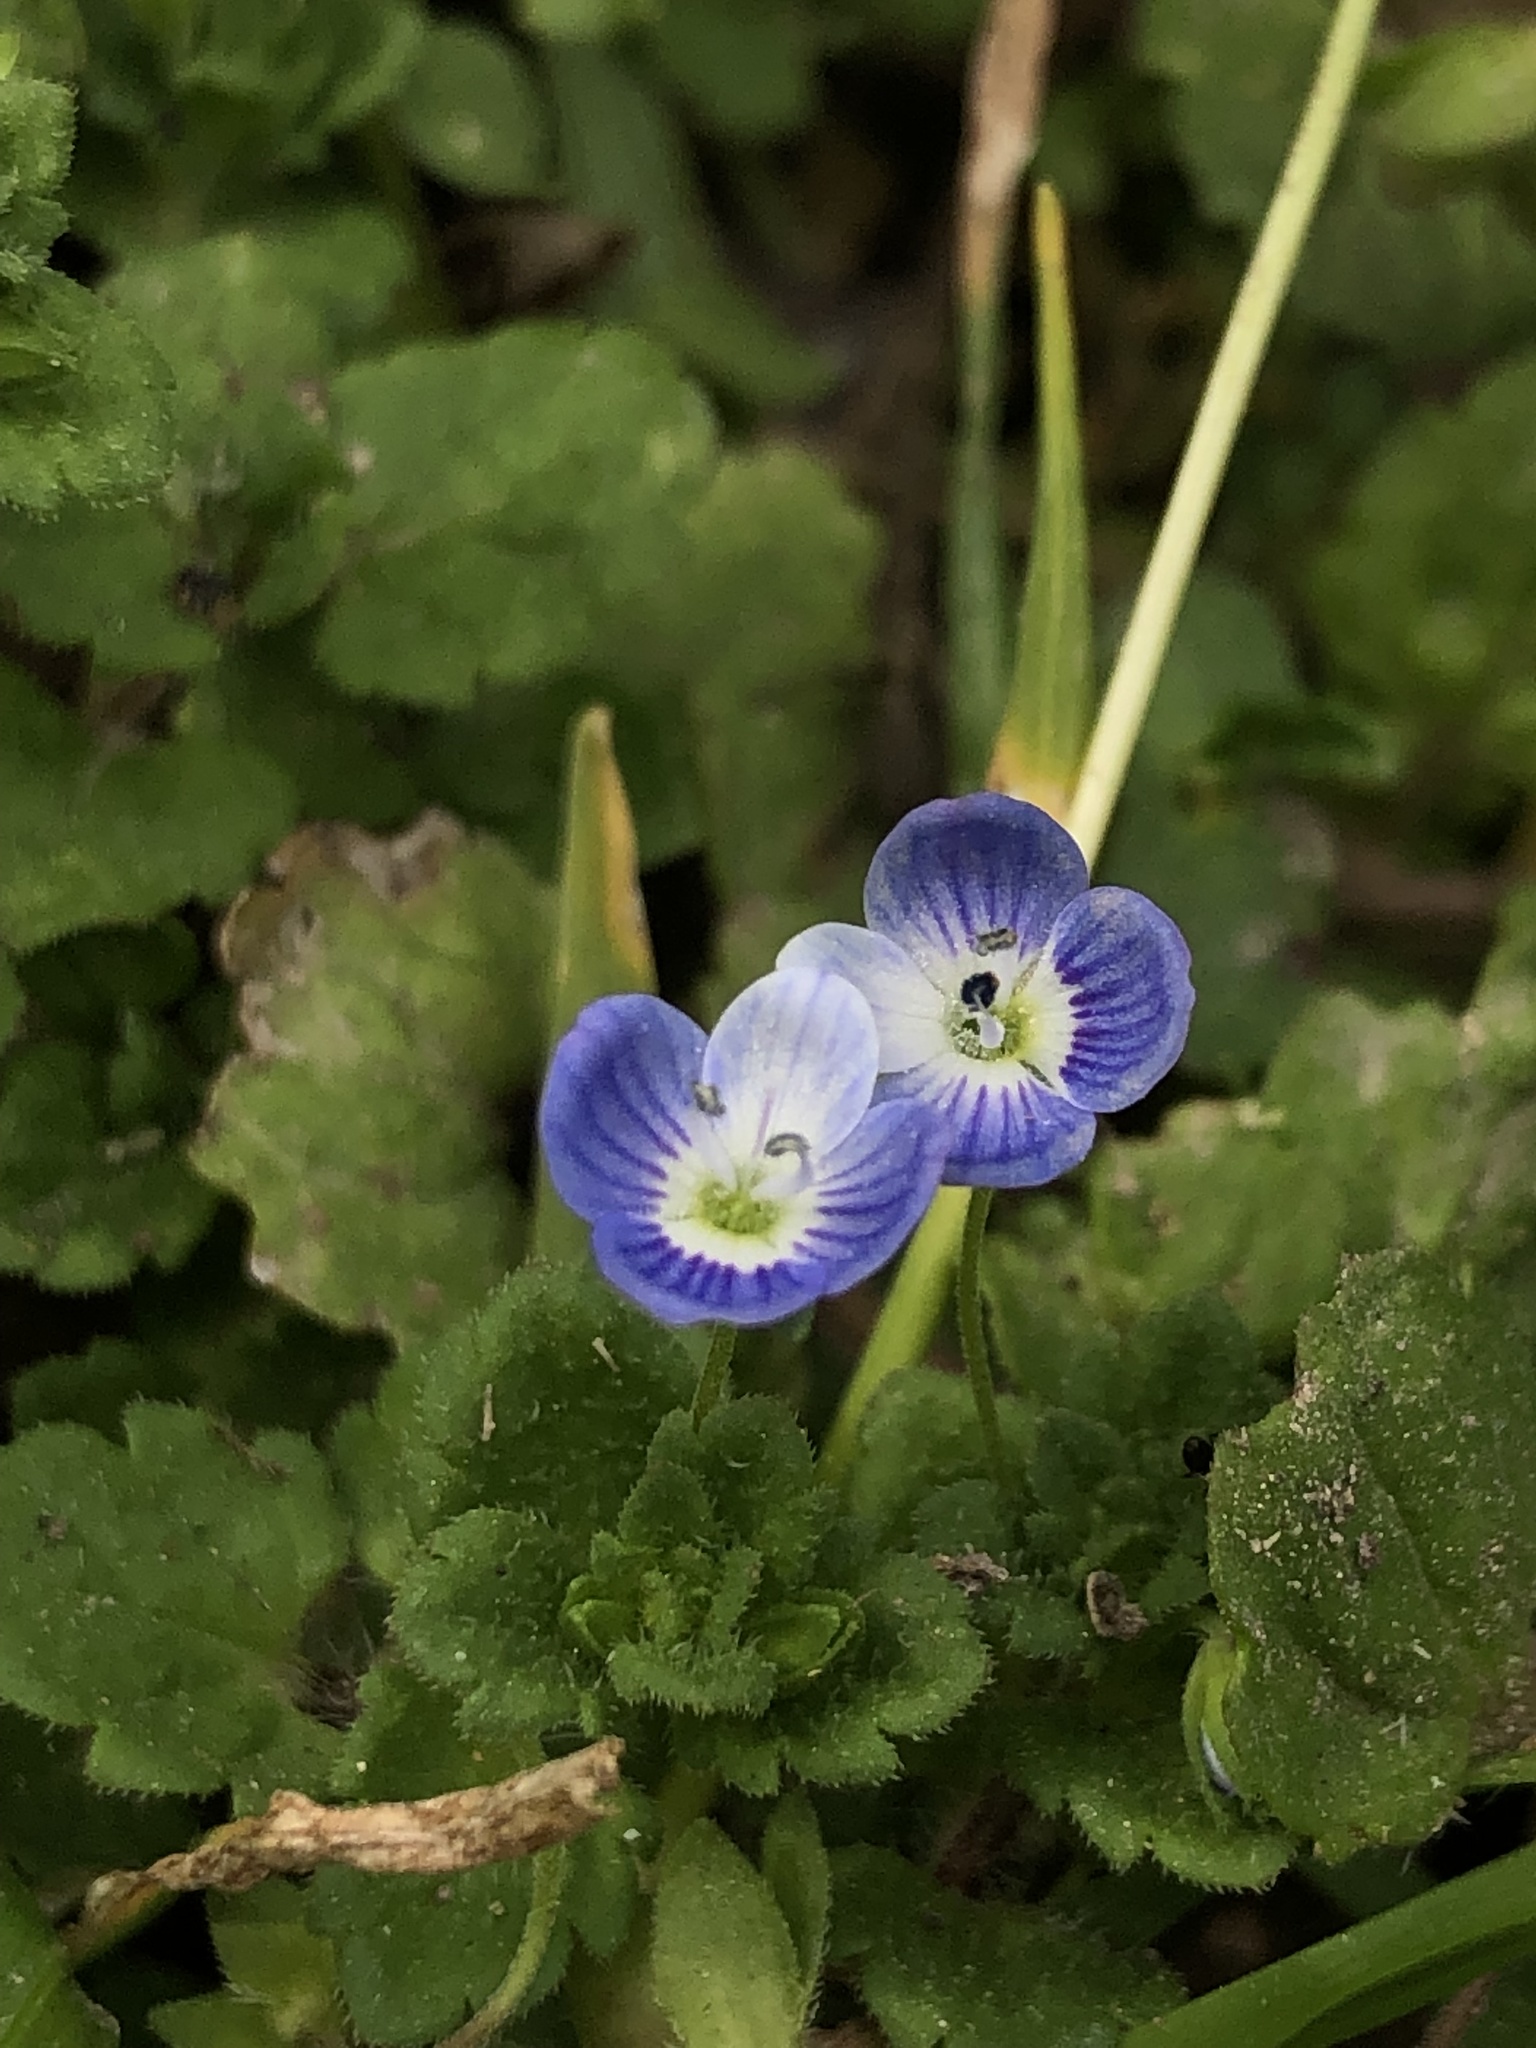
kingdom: Plantae
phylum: Tracheophyta
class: Magnoliopsida
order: Lamiales
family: Plantaginaceae
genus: Veronica
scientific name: Veronica persica
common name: Common field-speedwell
